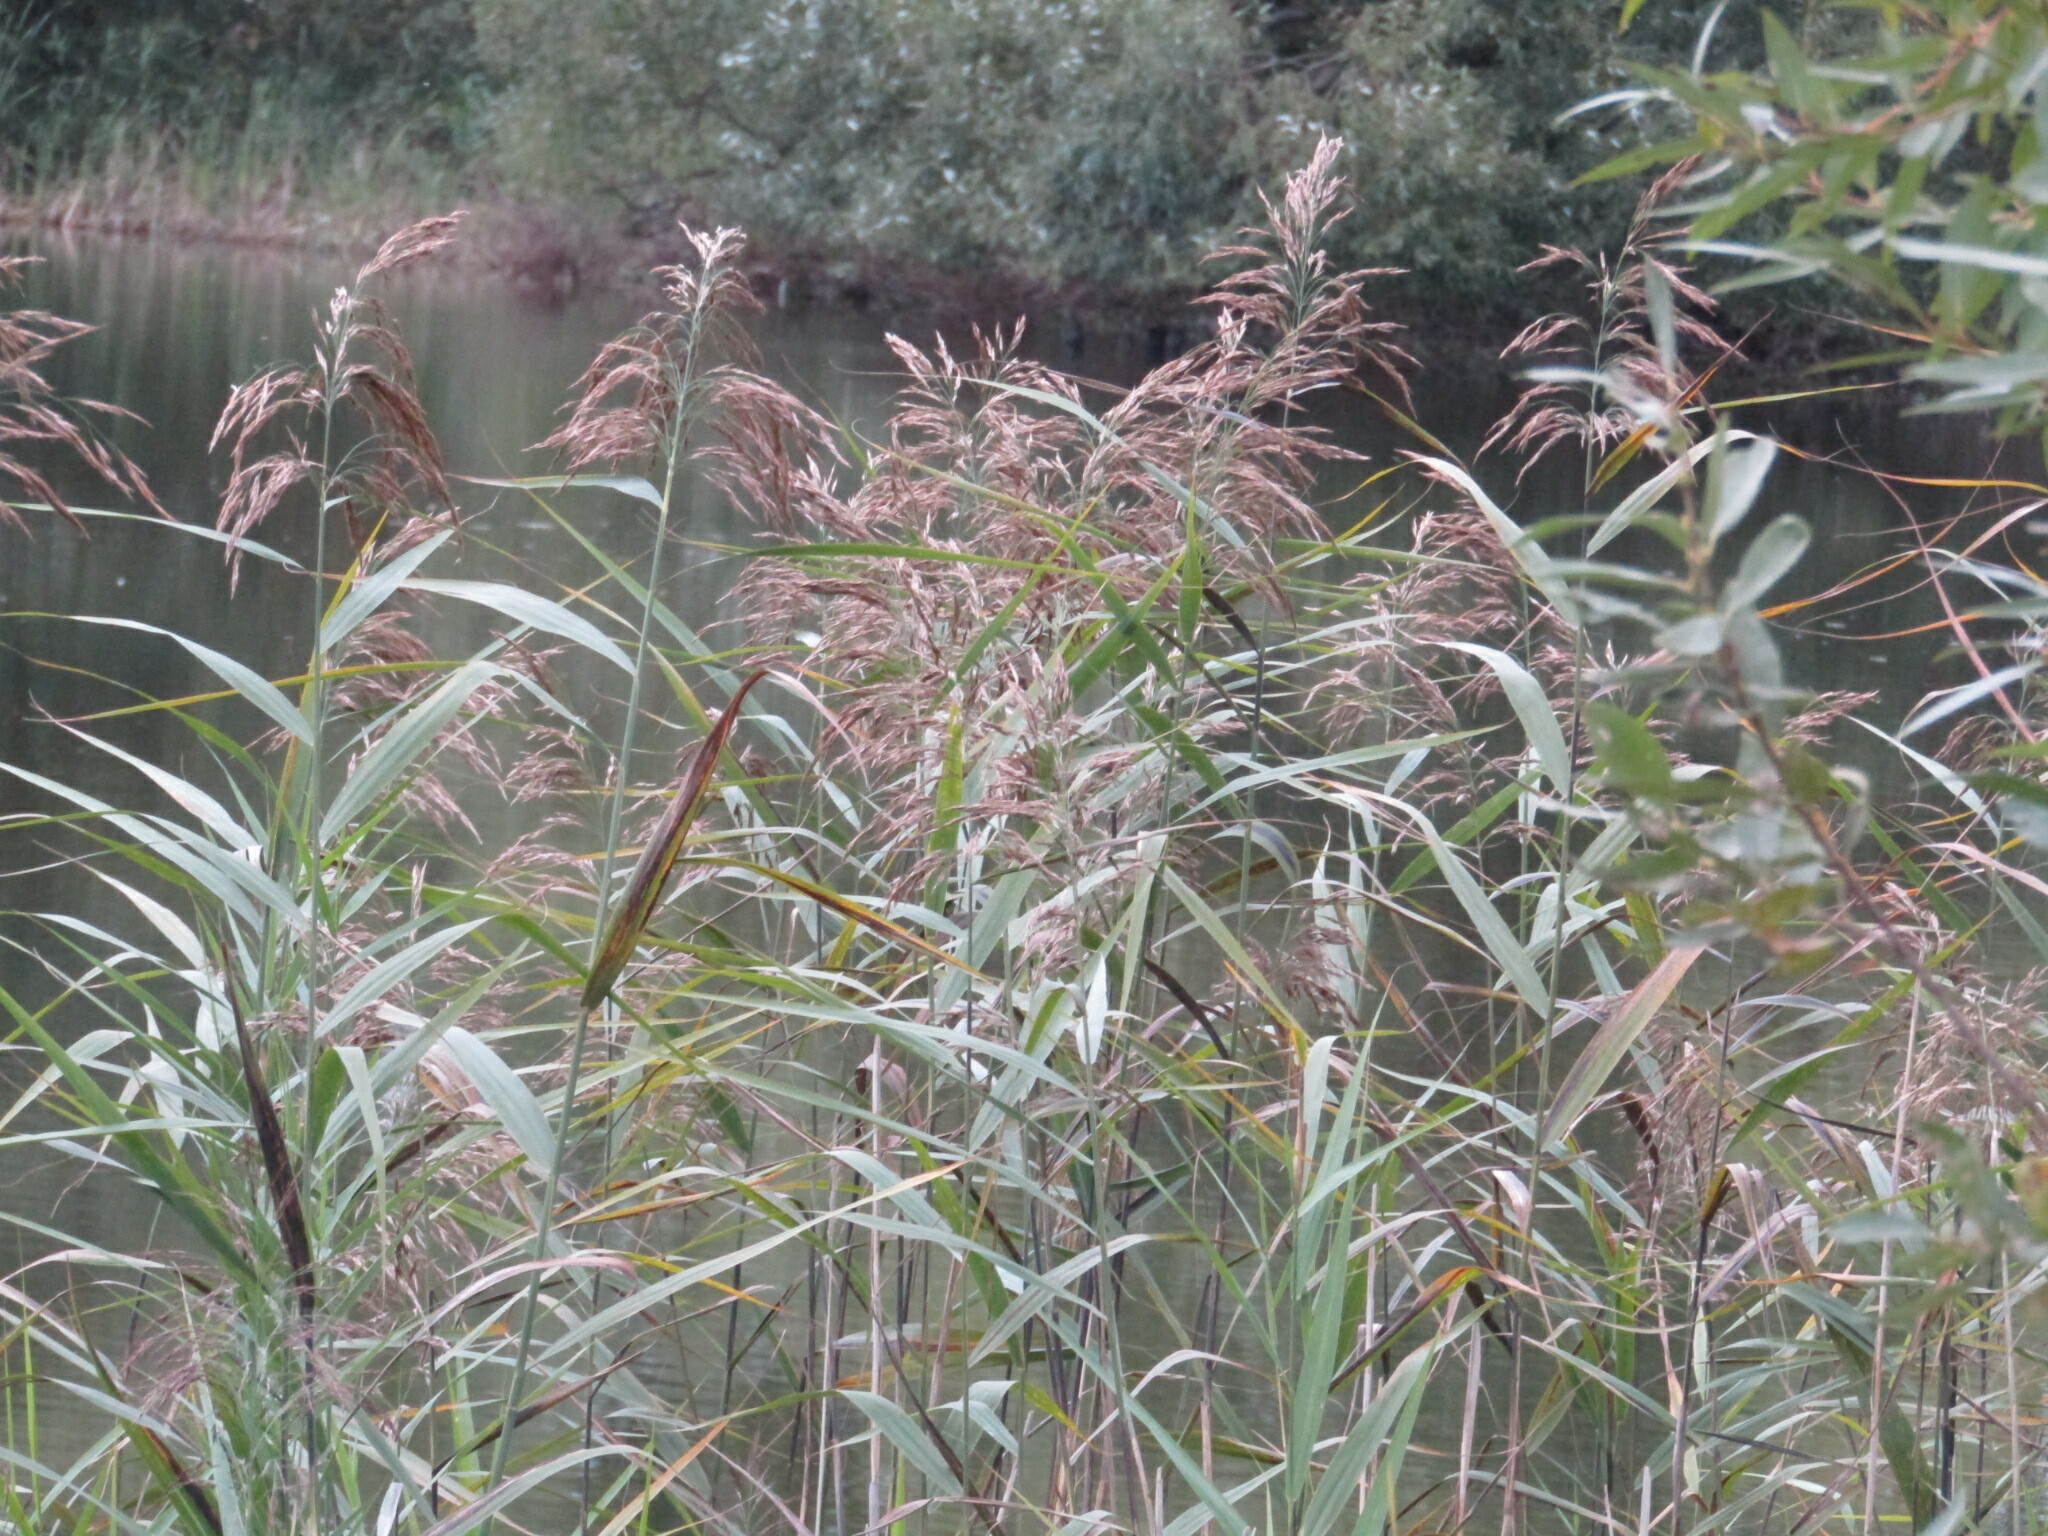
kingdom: Plantae
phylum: Tracheophyta
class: Liliopsida
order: Poales
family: Poaceae
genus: Phragmites
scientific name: Phragmites australis
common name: Common reed
